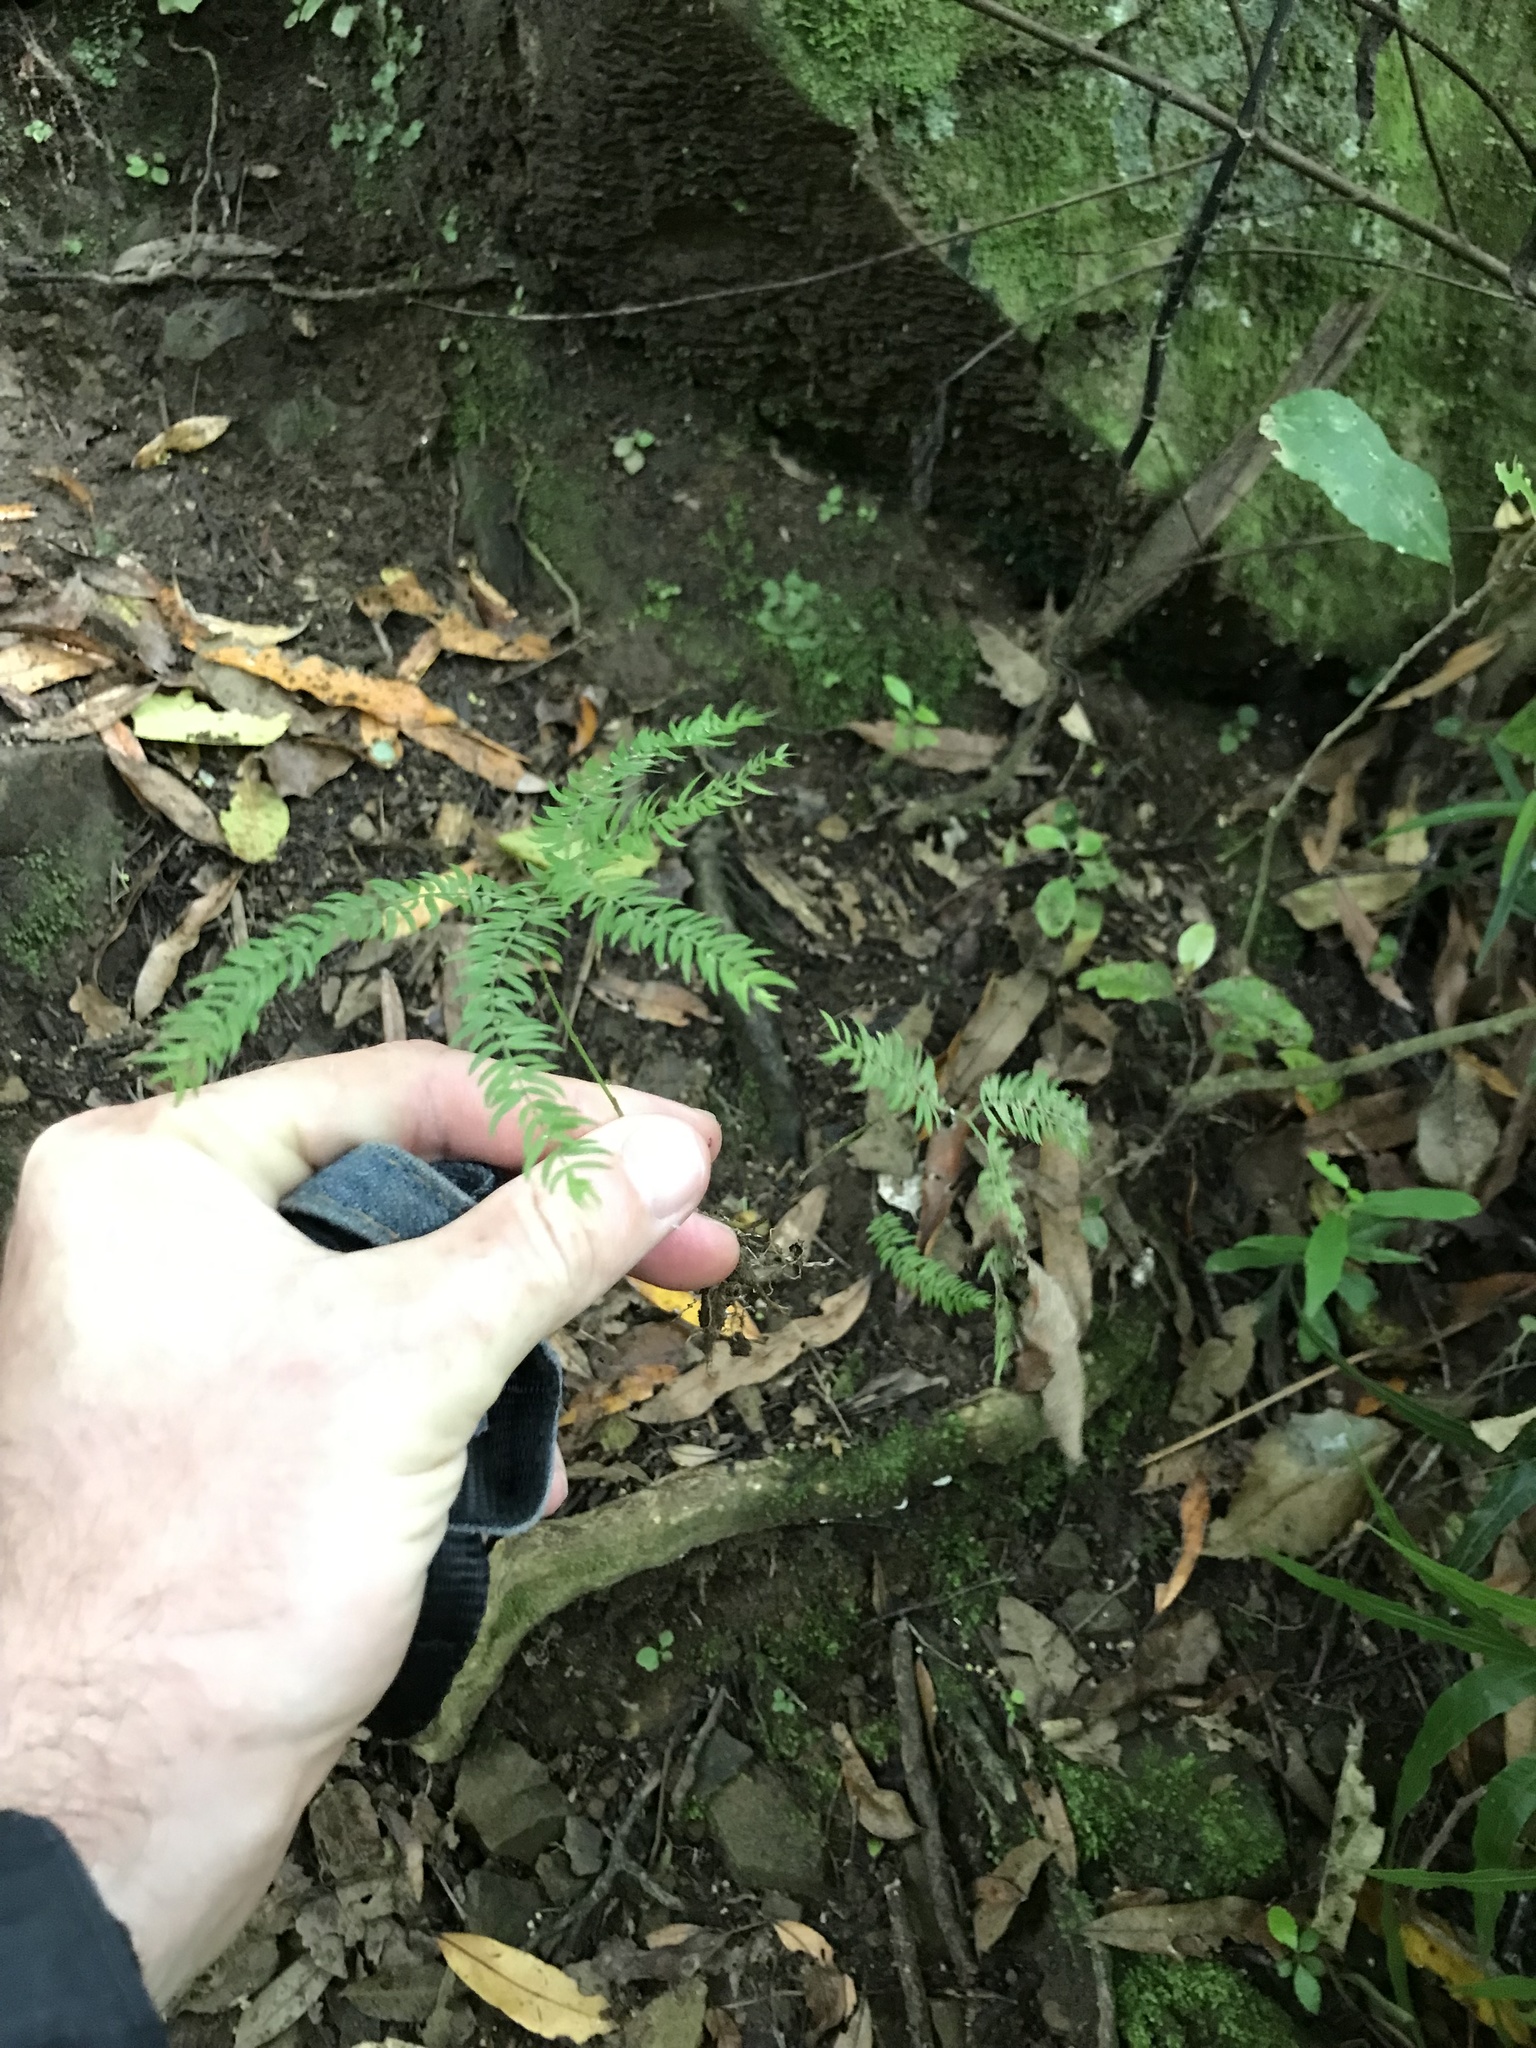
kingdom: Plantae
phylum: Tracheophyta
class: Liliopsida
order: Asparagales
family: Asparagaceae
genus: Asparagus
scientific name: Asparagus scandens
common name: Asparagus-fern
